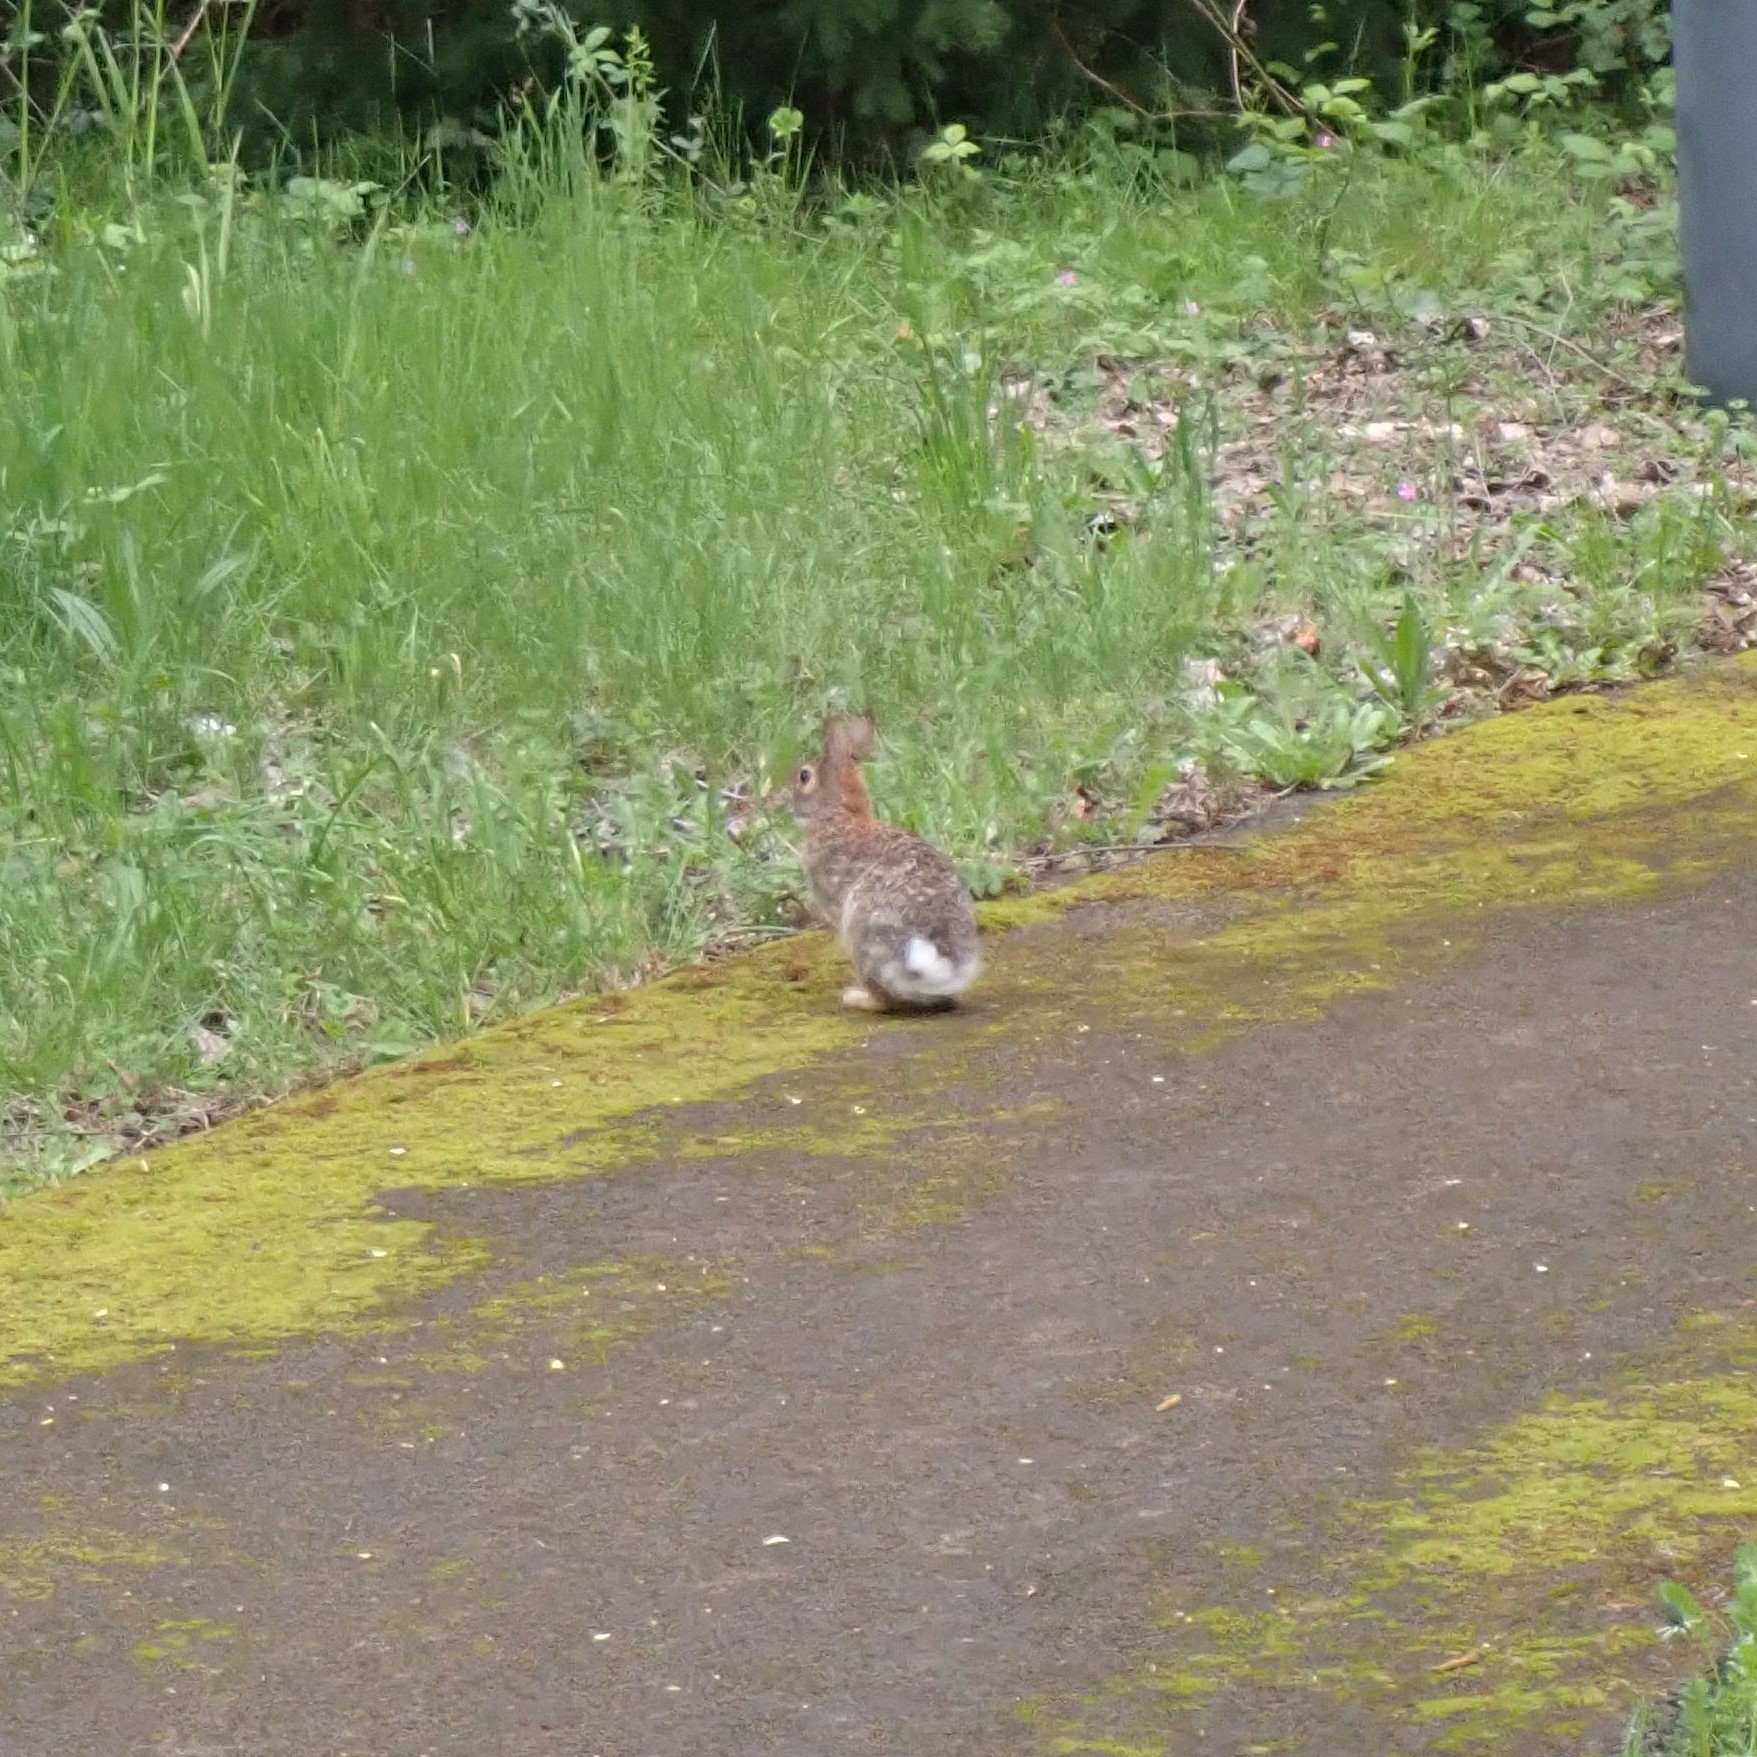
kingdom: Animalia
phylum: Chordata
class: Mammalia
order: Lagomorpha
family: Leporidae
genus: Sylvilagus
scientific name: Sylvilagus floridanus
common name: Eastern cottontail
